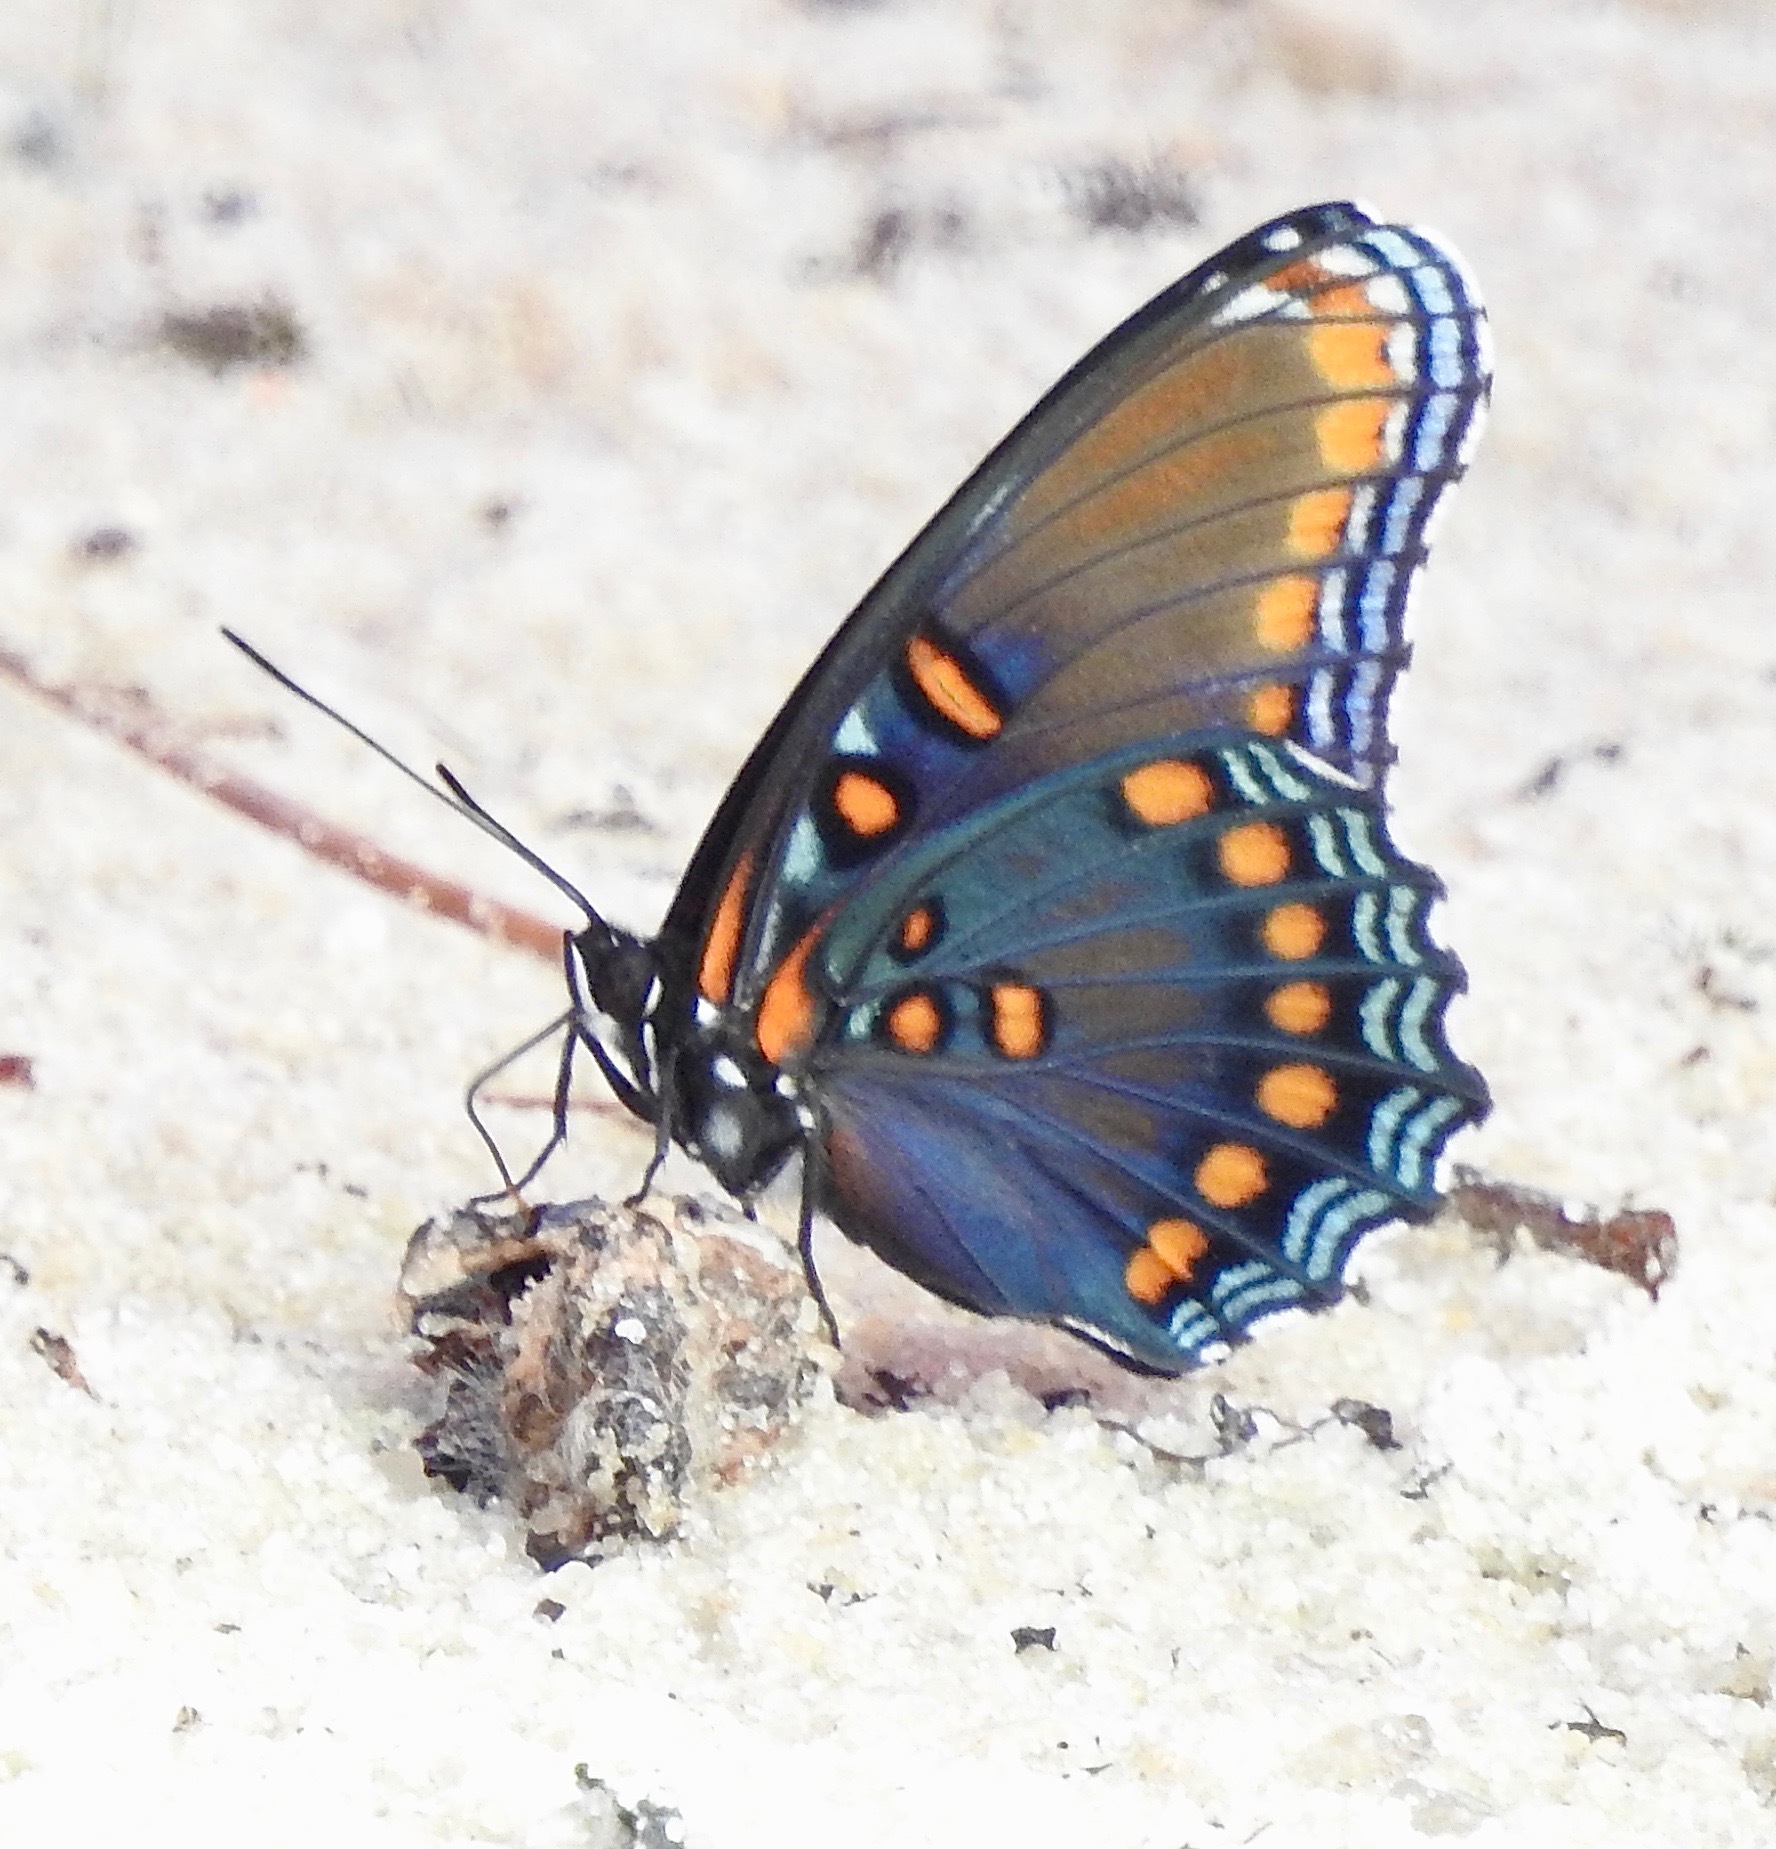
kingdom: Animalia
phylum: Arthropoda
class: Insecta
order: Lepidoptera
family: Nymphalidae
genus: Limenitis
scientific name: Limenitis astyanax
